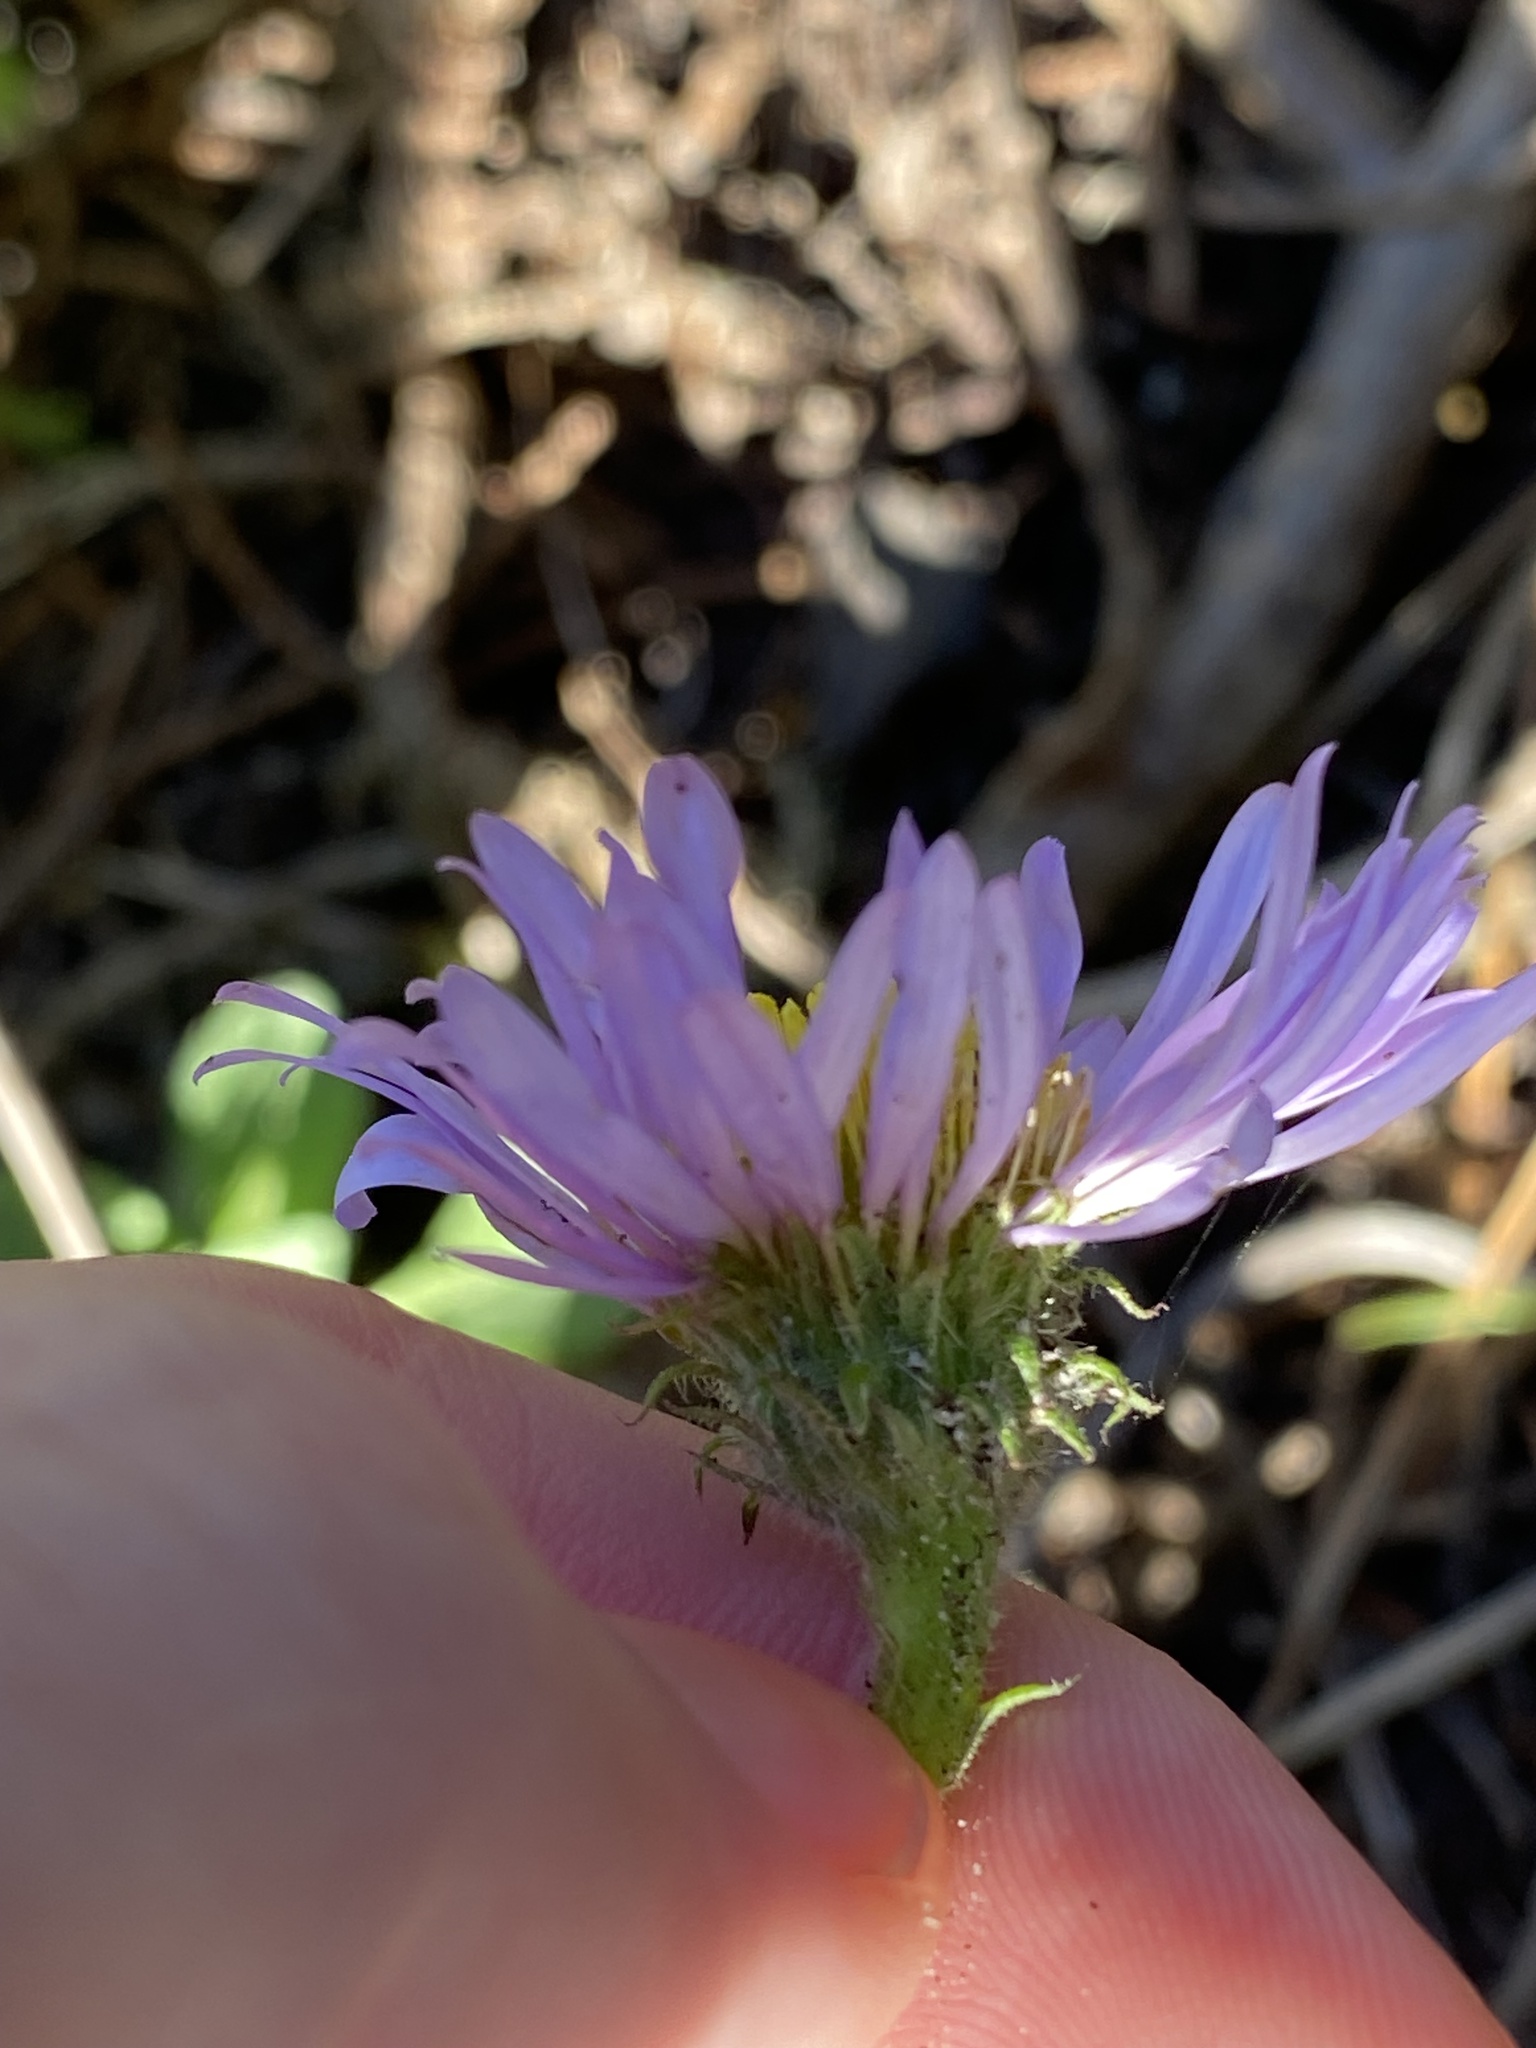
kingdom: Plantae
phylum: Tracheophyta
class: Magnoliopsida
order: Asterales
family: Asteraceae
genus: Erigeron
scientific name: Erigeron glaucus
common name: Seaside daisy
